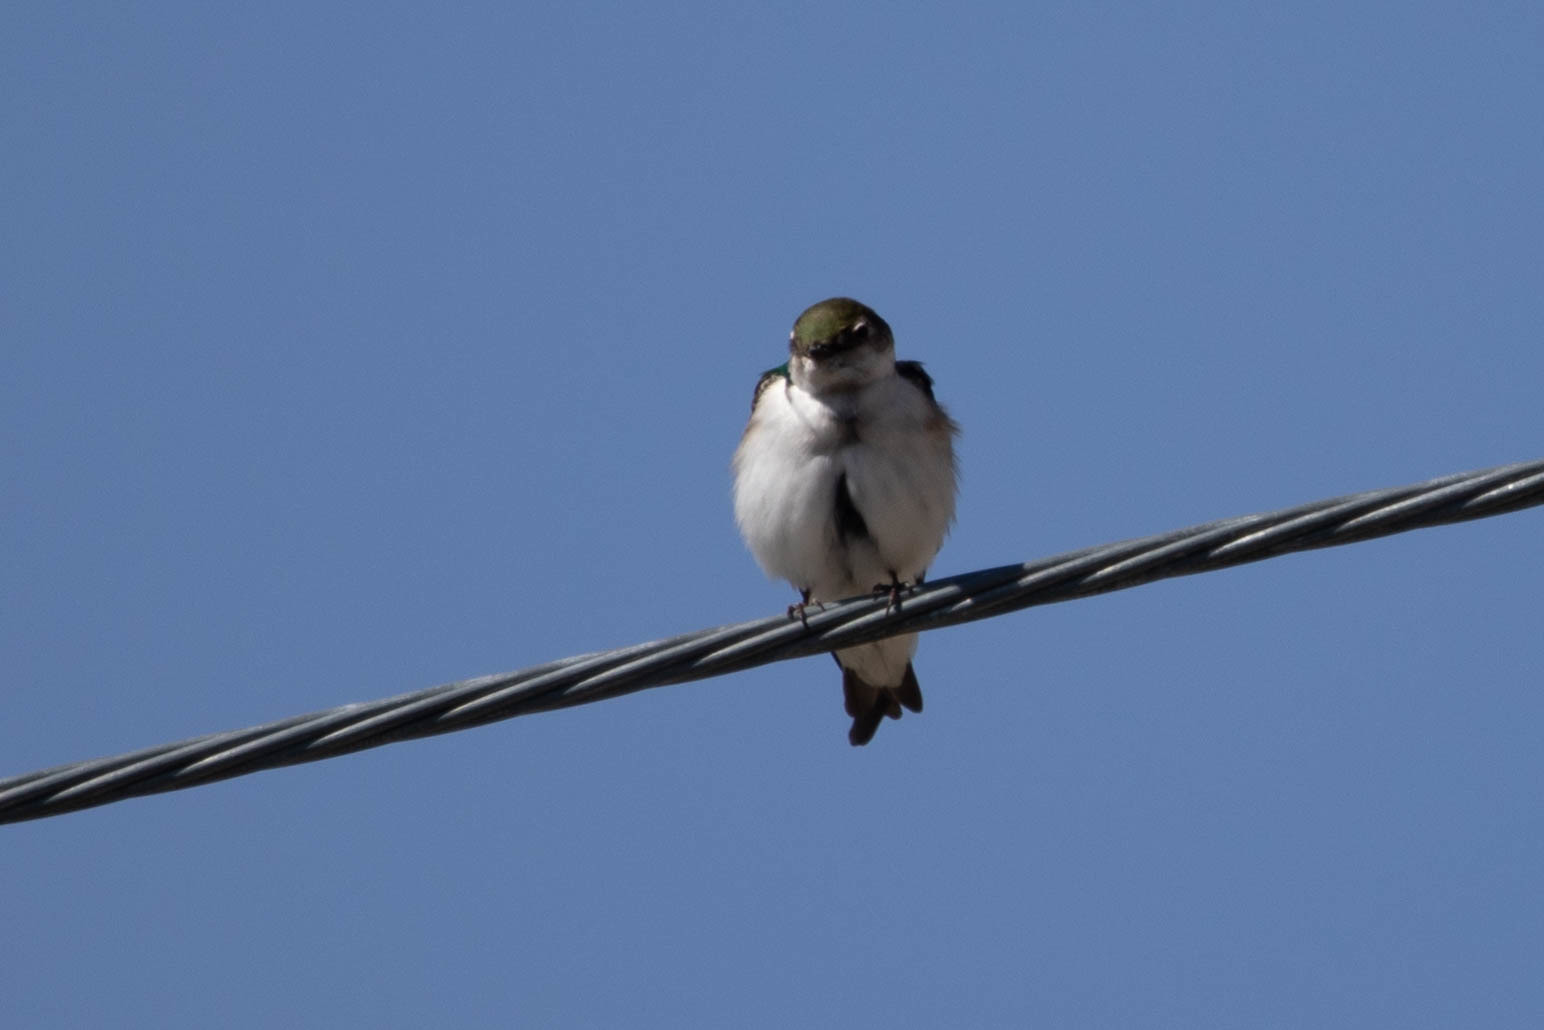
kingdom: Animalia
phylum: Chordata
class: Aves
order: Passeriformes
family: Hirundinidae
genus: Tachycineta
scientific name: Tachycineta thalassina
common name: Violet-green swallow
